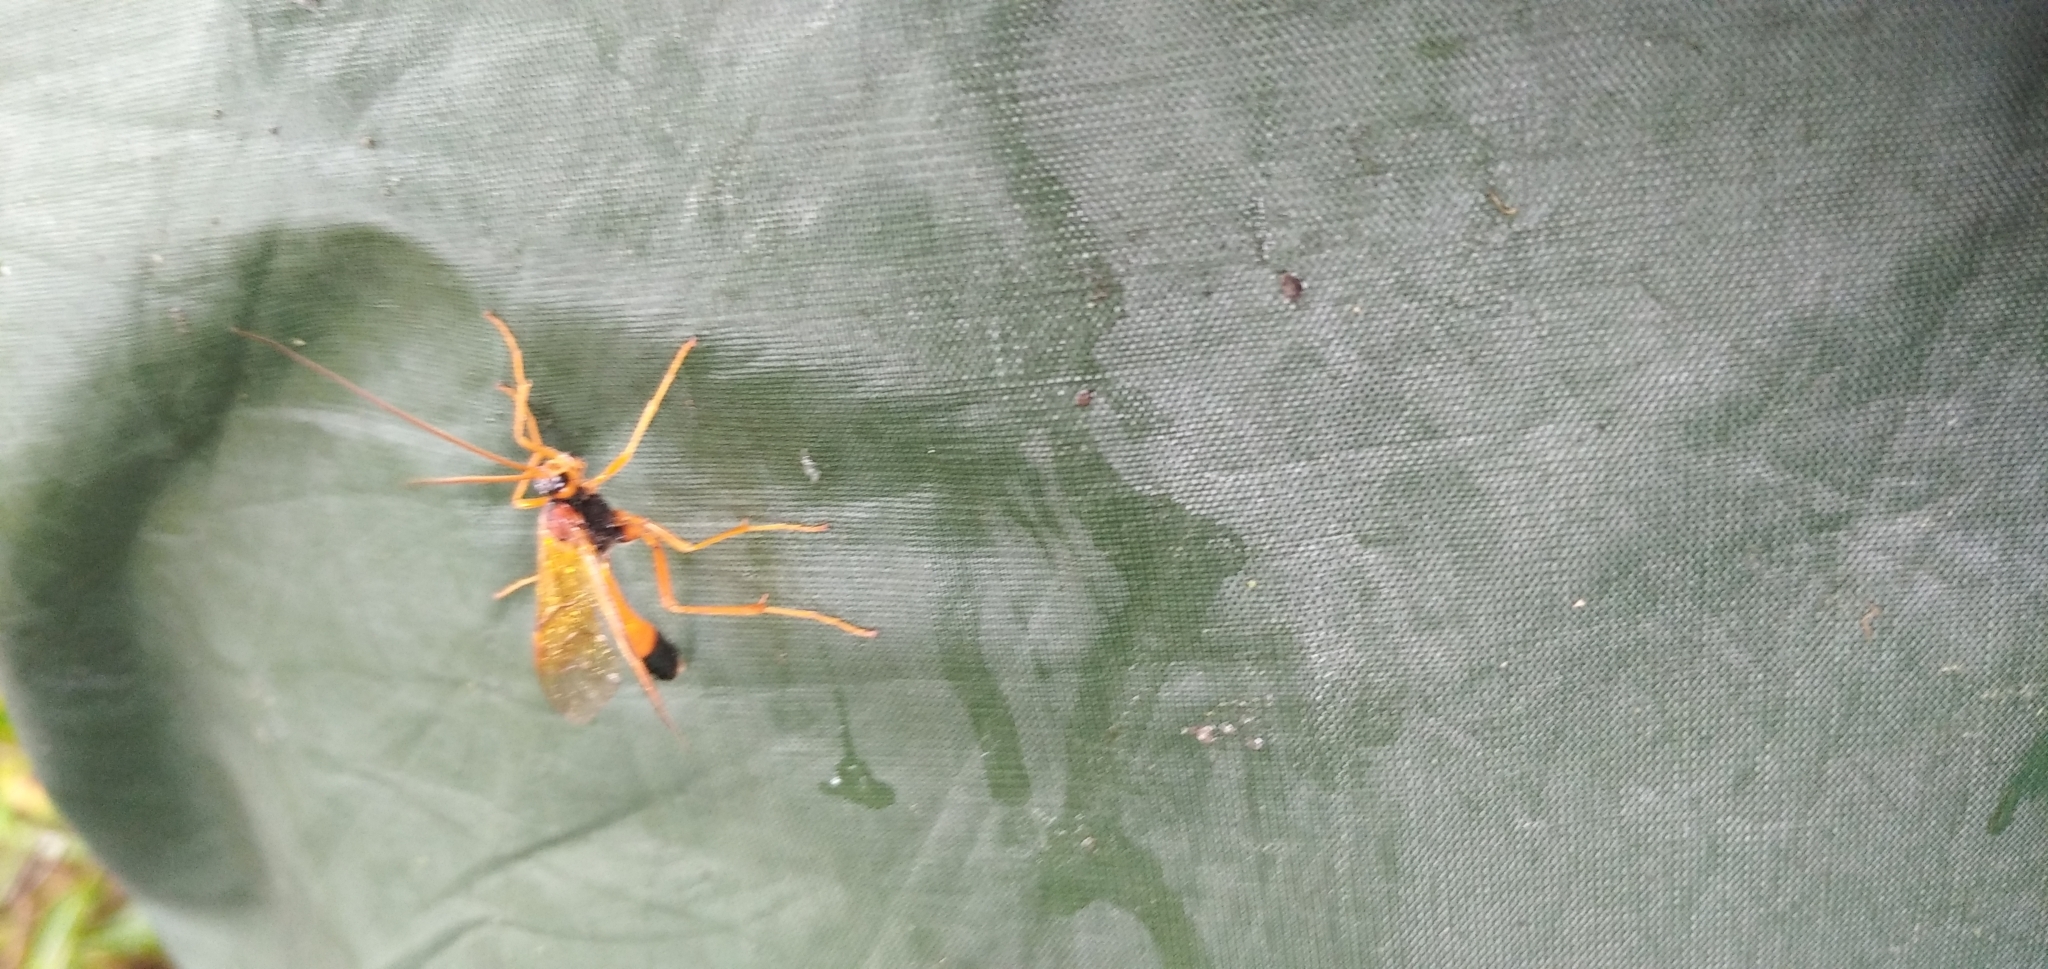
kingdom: Animalia
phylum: Arthropoda
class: Insecta
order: Hymenoptera
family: Ichneumonidae
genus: Opheltes
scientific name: Opheltes glaucopterus
